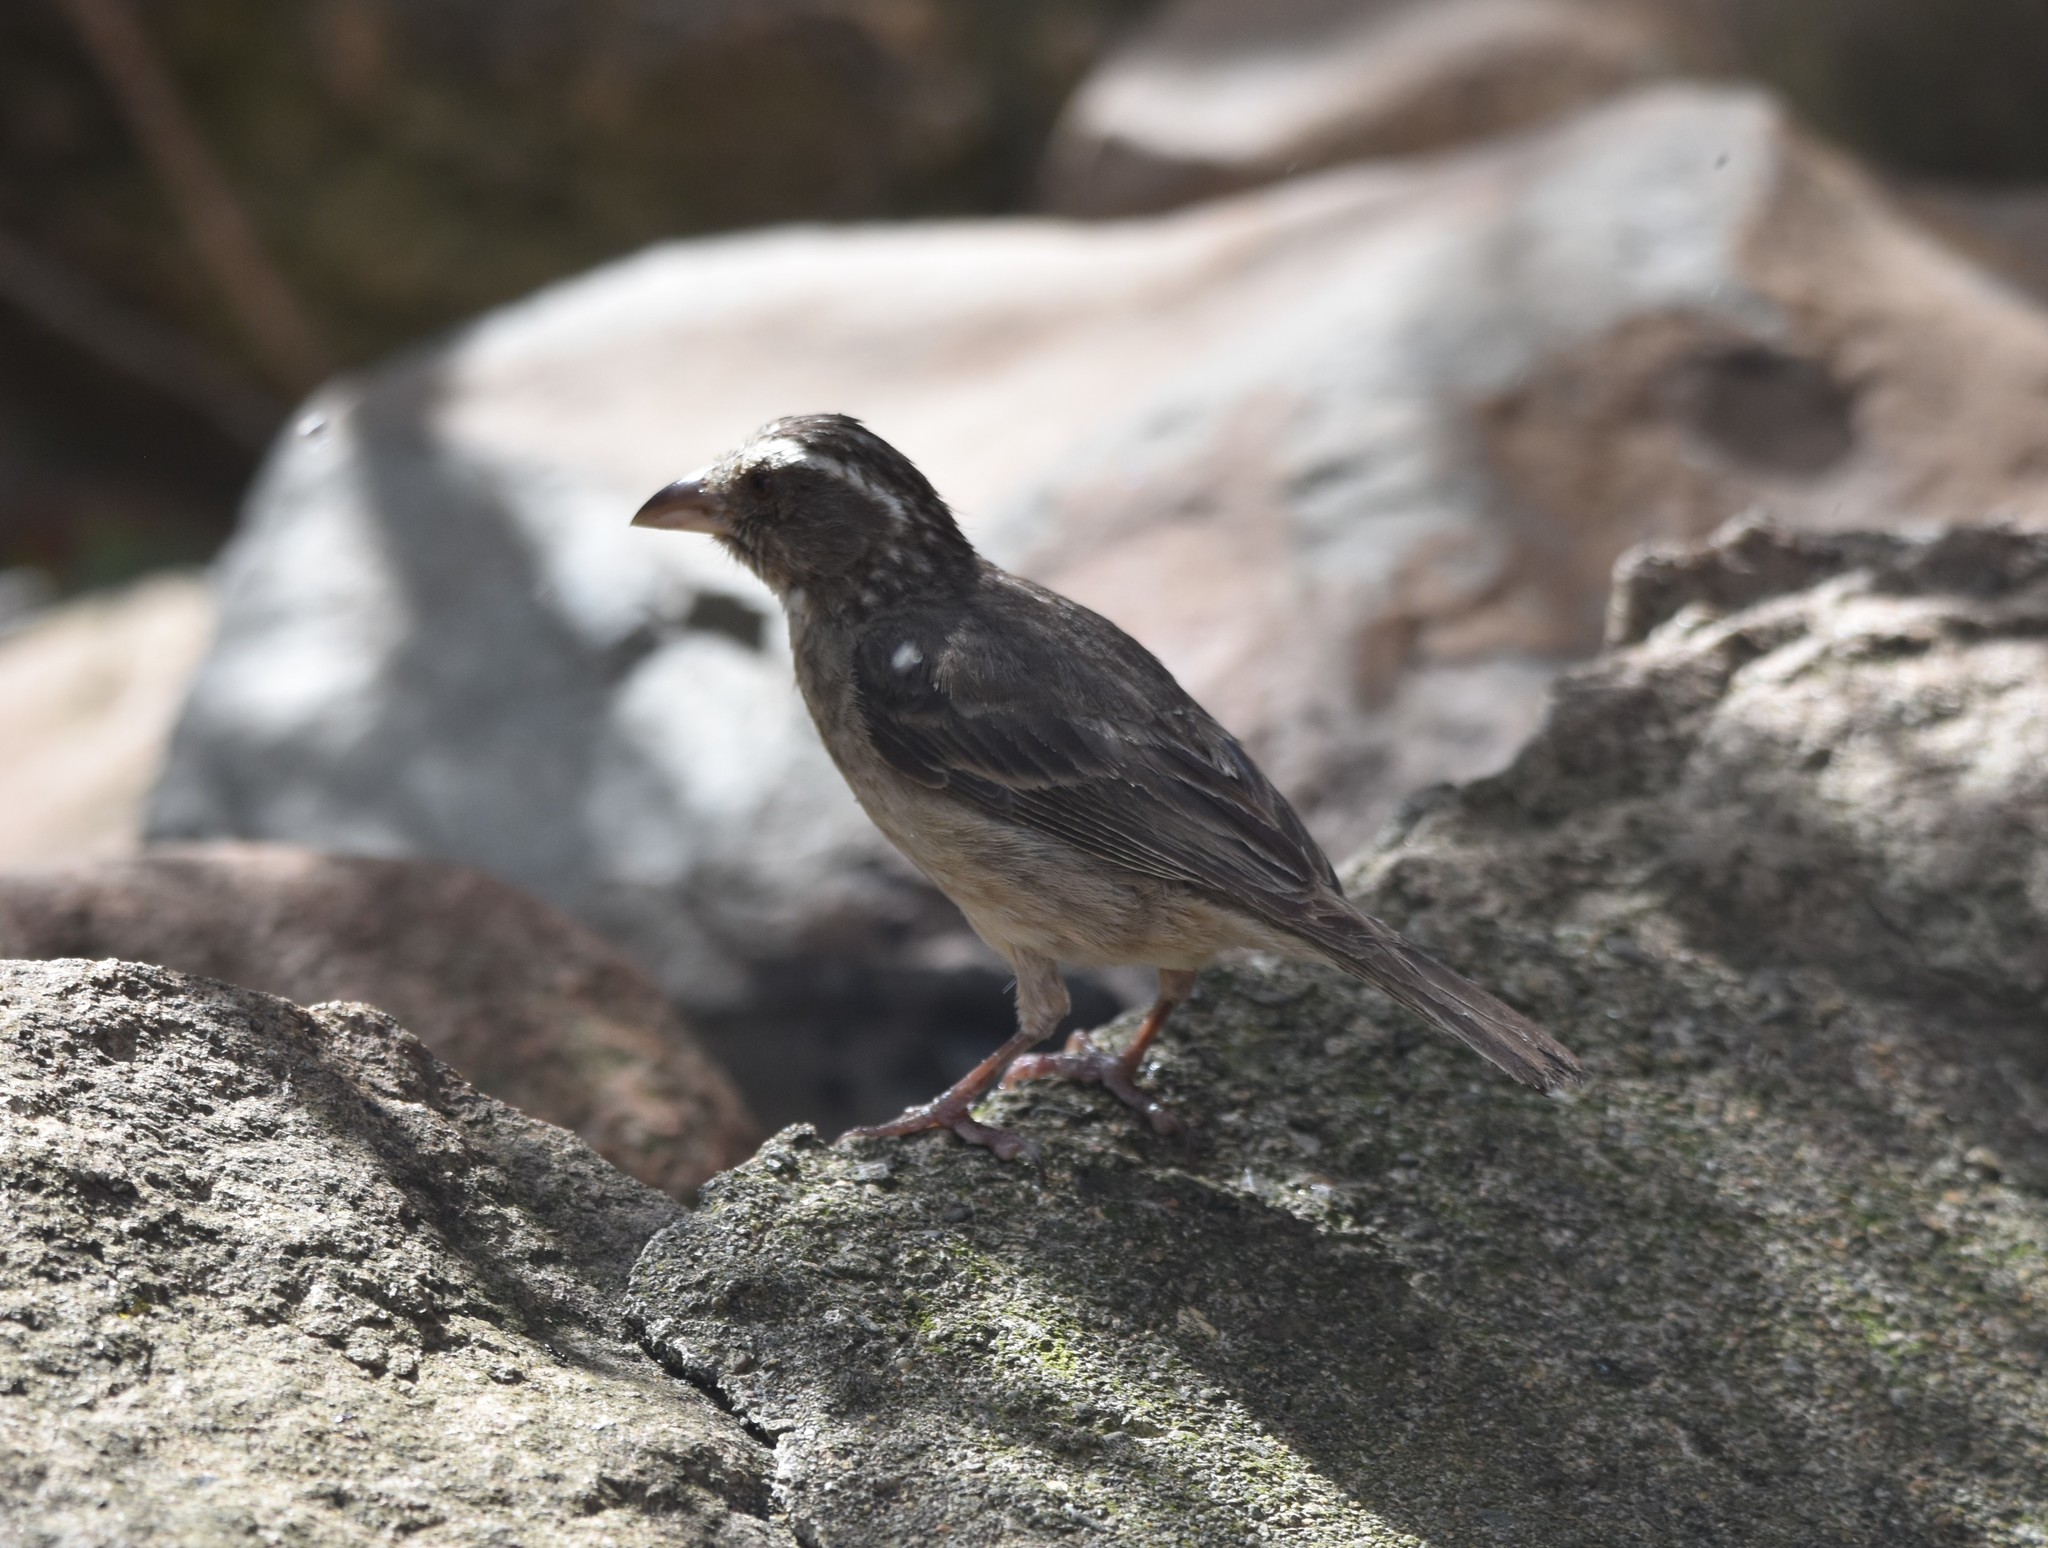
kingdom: Animalia
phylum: Chordata
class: Aves
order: Passeriformes
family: Fringillidae
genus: Crithagra
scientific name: Crithagra gularis
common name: Streaky-headed seedeater
